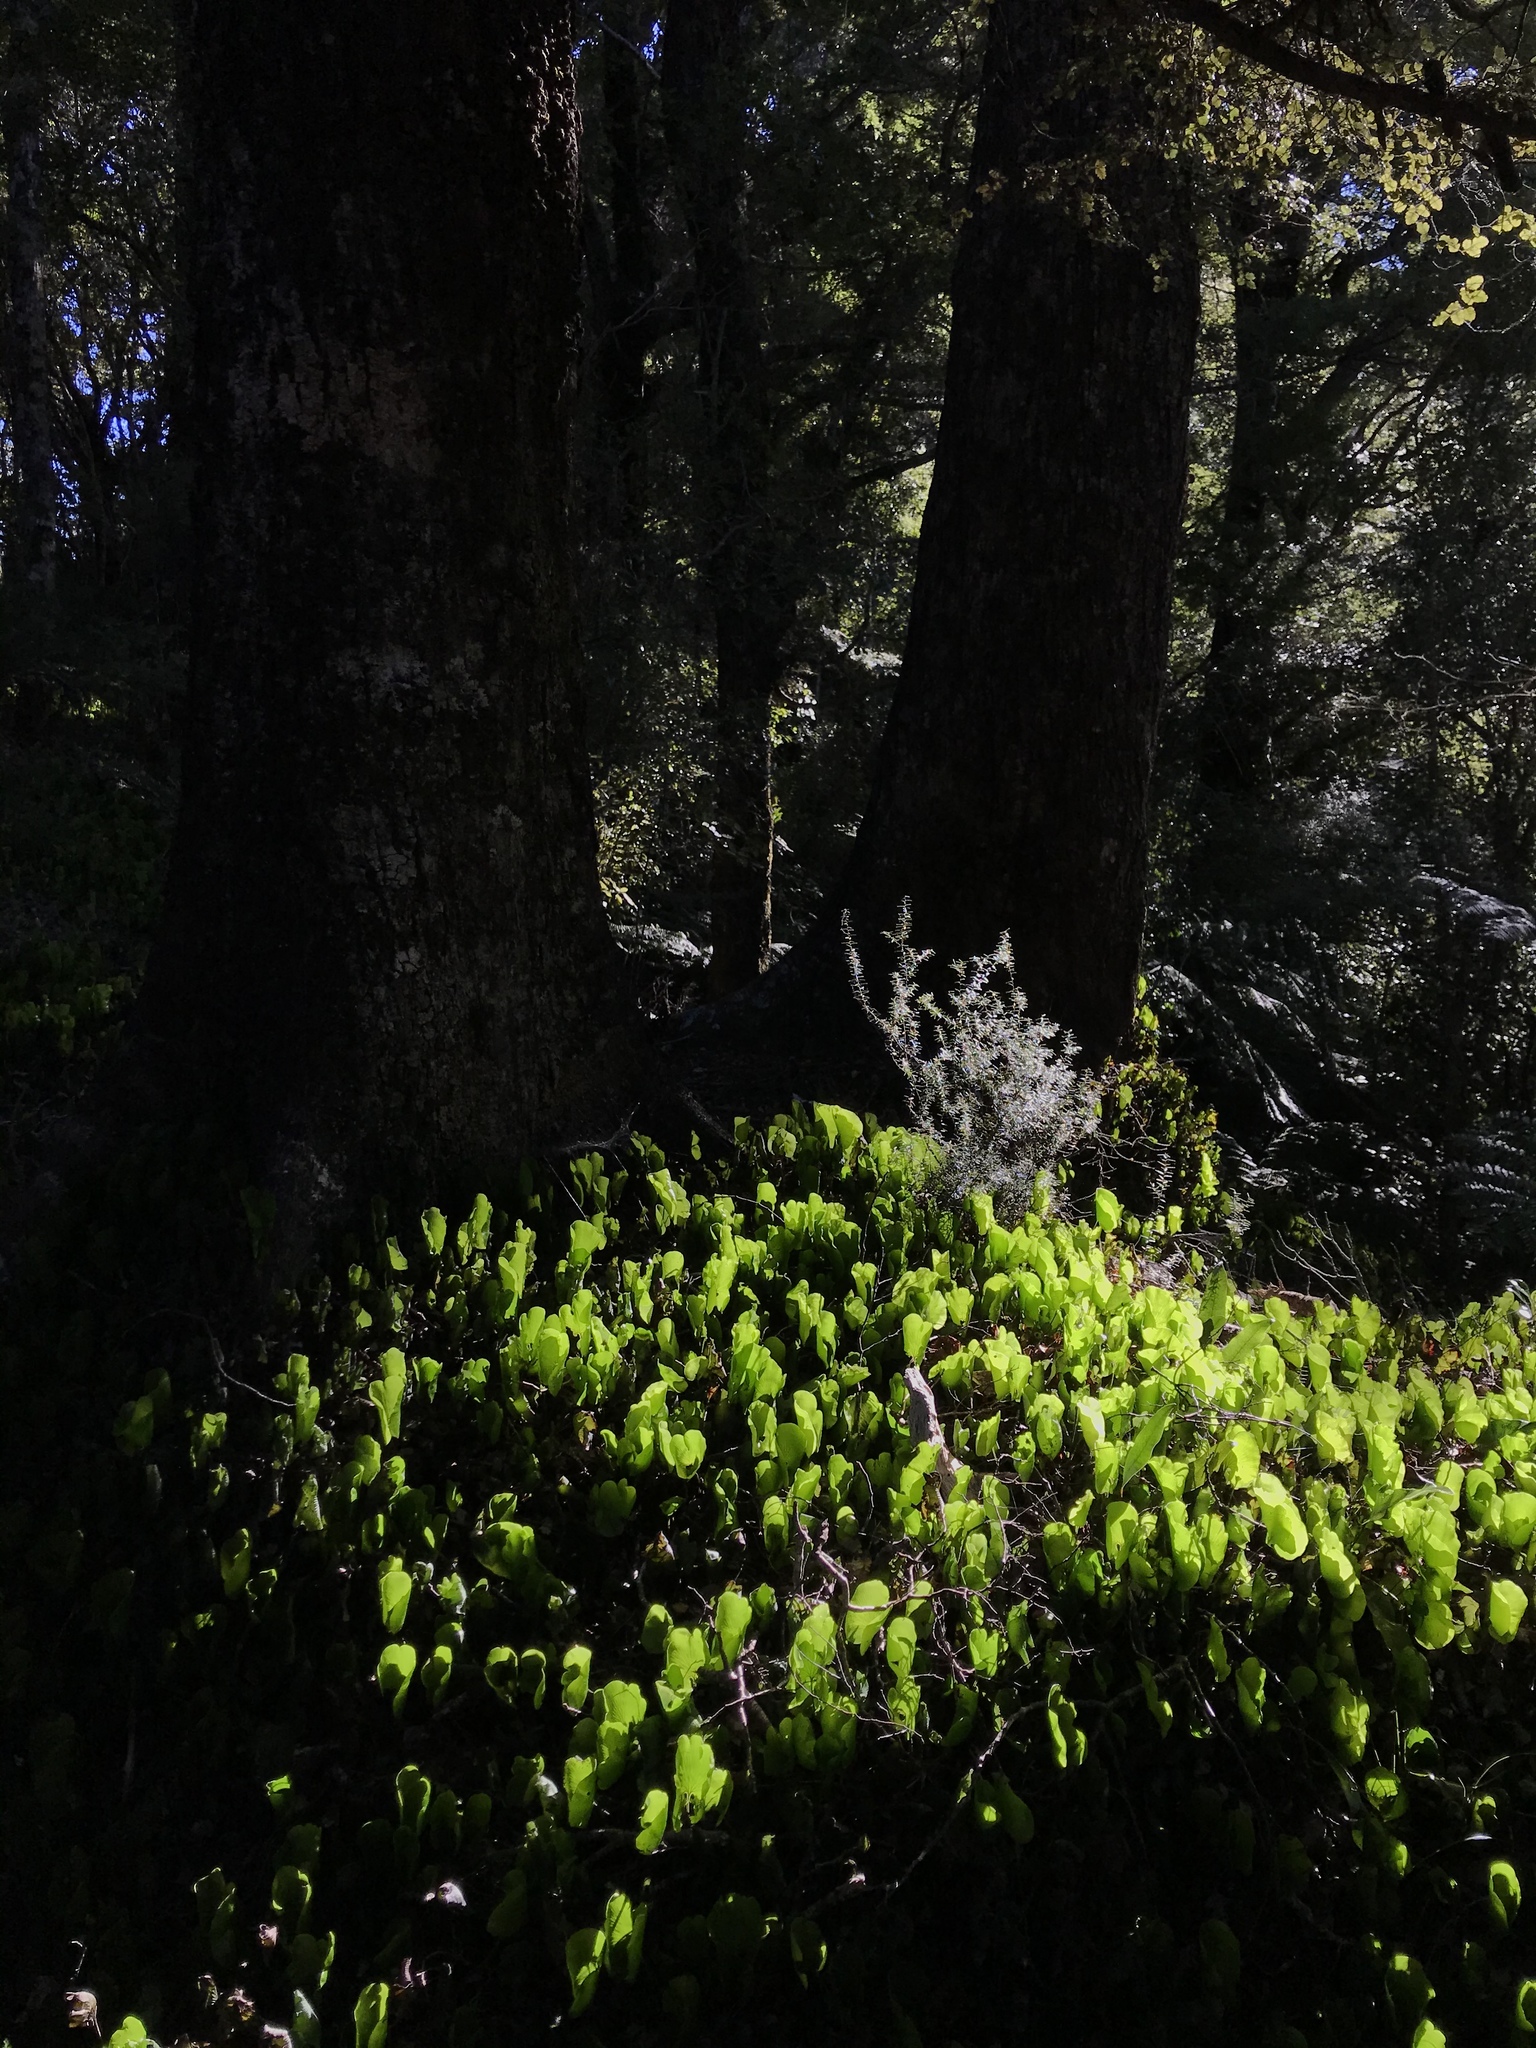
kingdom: Plantae
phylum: Tracheophyta
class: Polypodiopsida
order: Hymenophyllales
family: Hymenophyllaceae
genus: Hymenophyllum
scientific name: Hymenophyllum nephrophyllum
